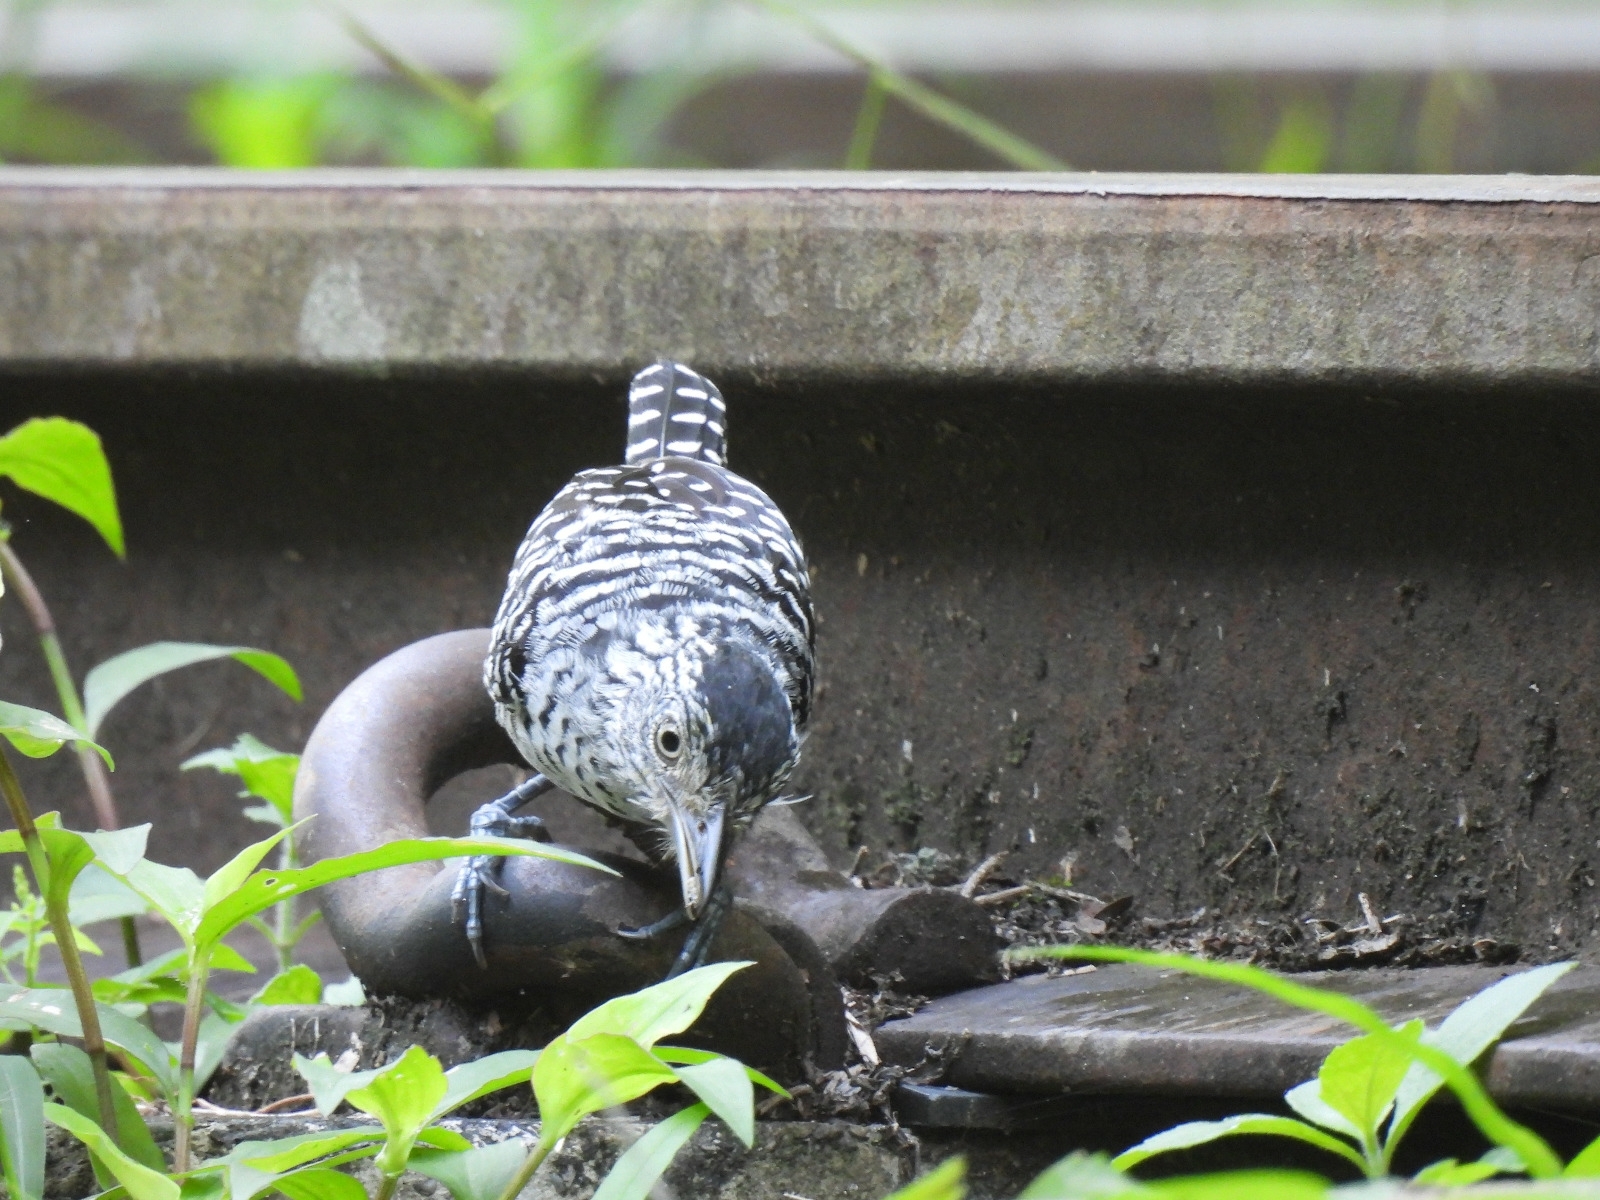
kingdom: Animalia
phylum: Chordata
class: Aves
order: Passeriformes
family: Thamnophilidae
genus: Thamnophilus
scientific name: Thamnophilus doliatus
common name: Barred antshrike
